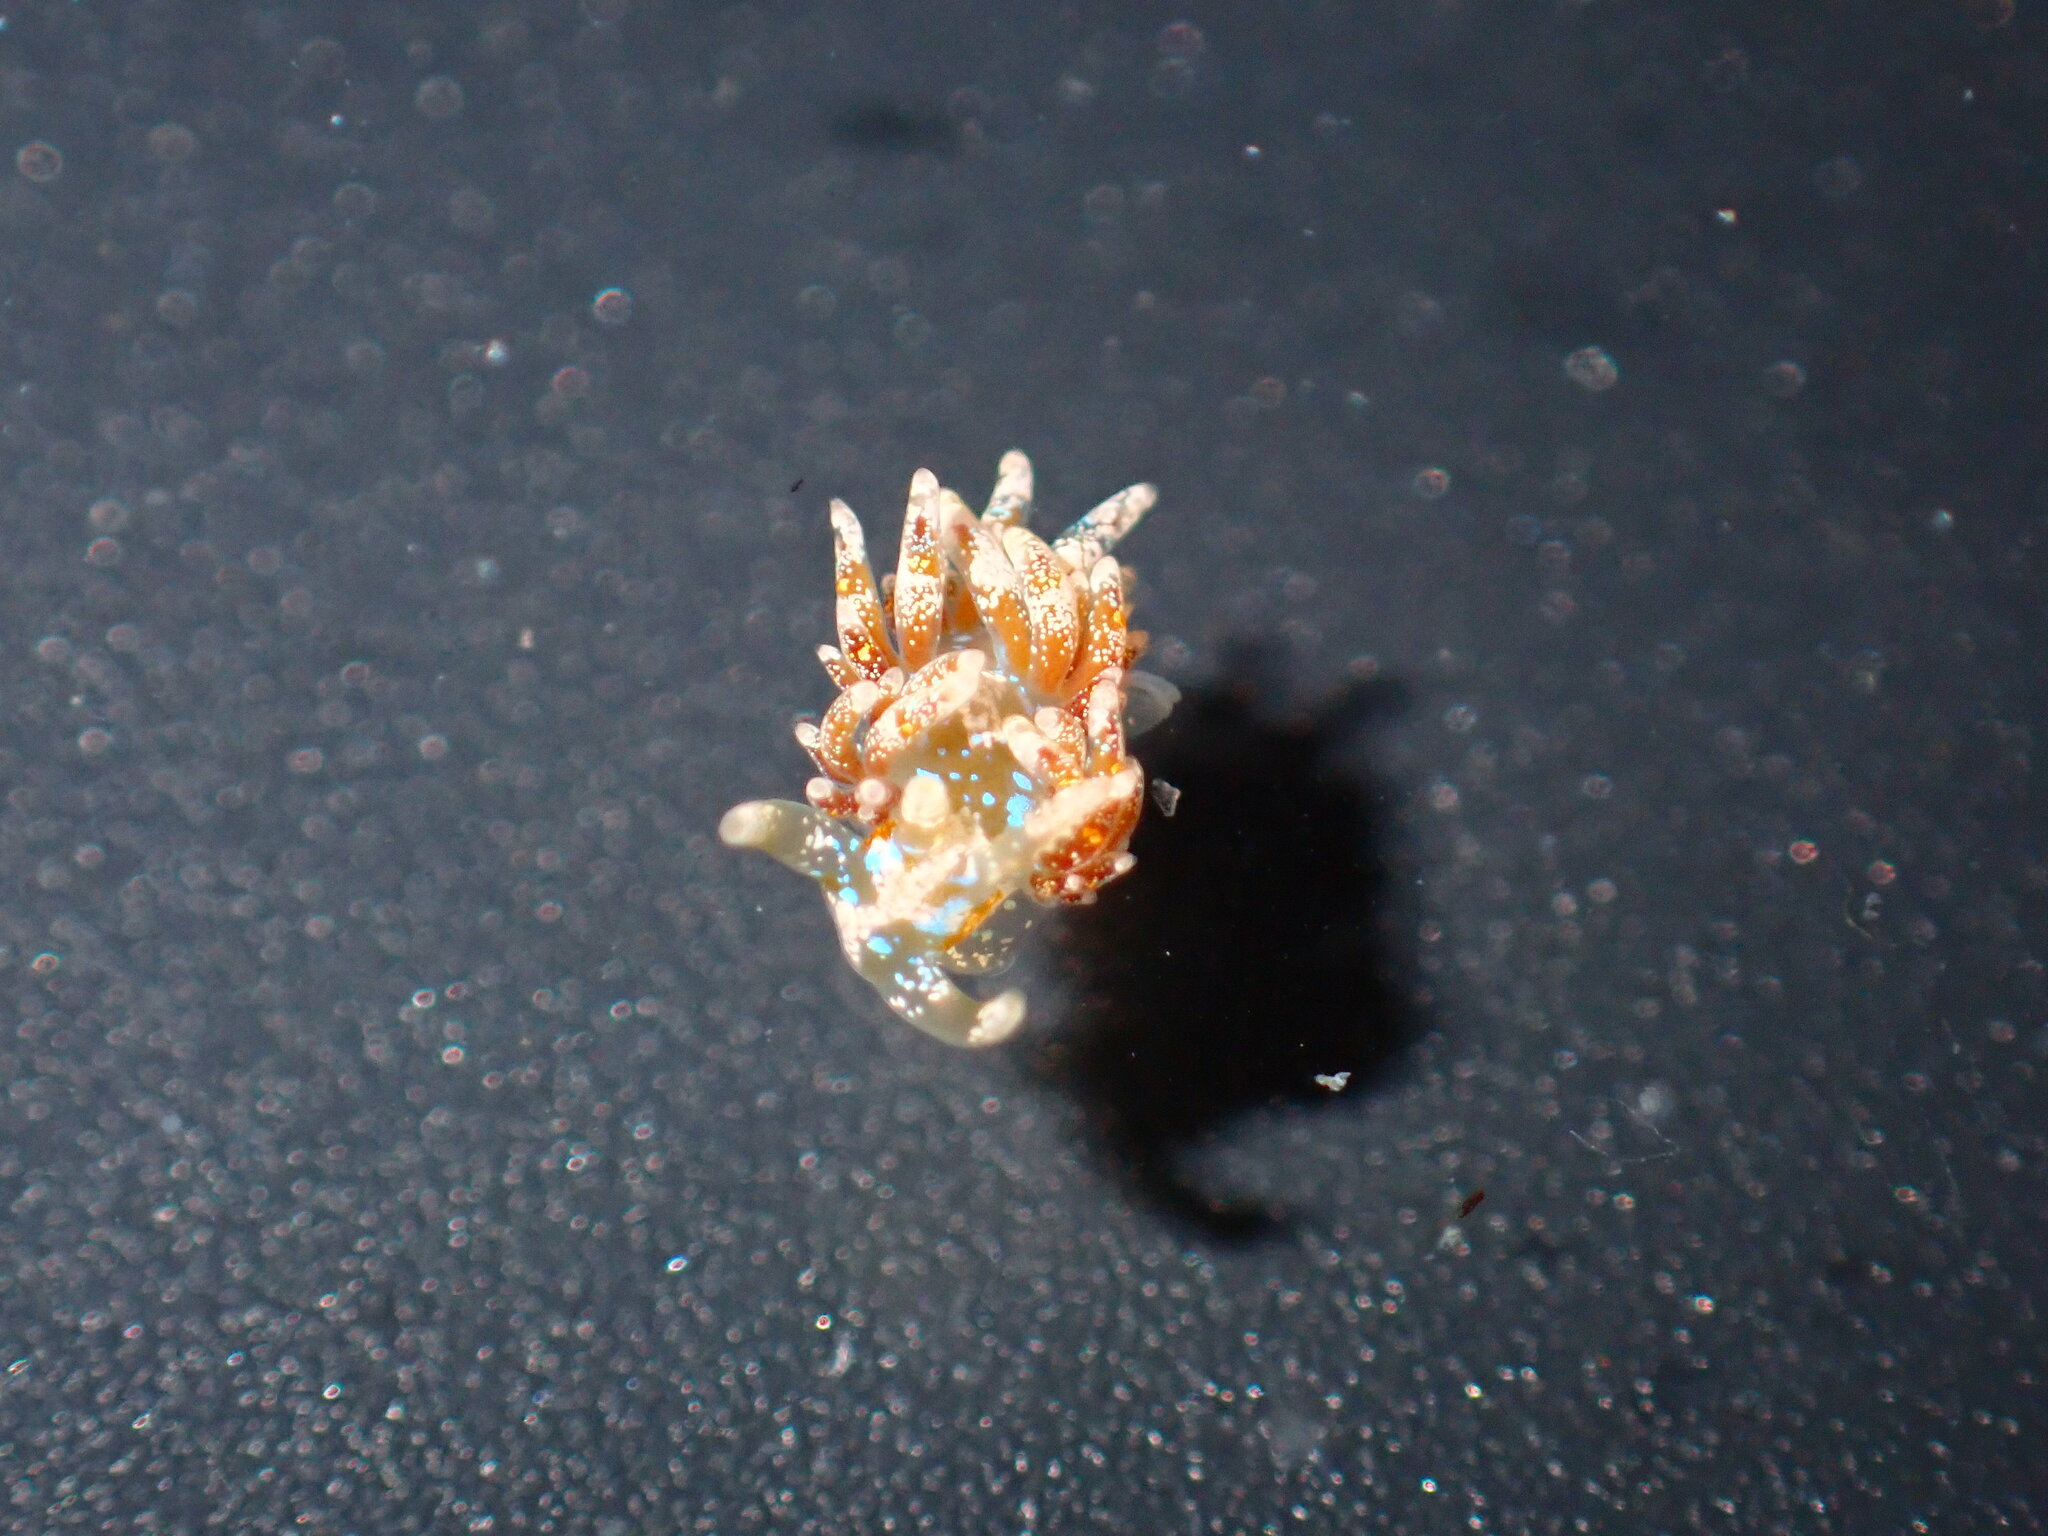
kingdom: Animalia
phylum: Mollusca
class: Gastropoda
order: Nudibranchia
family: Facelinidae
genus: Austraeolis
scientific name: Austraeolis ornata
